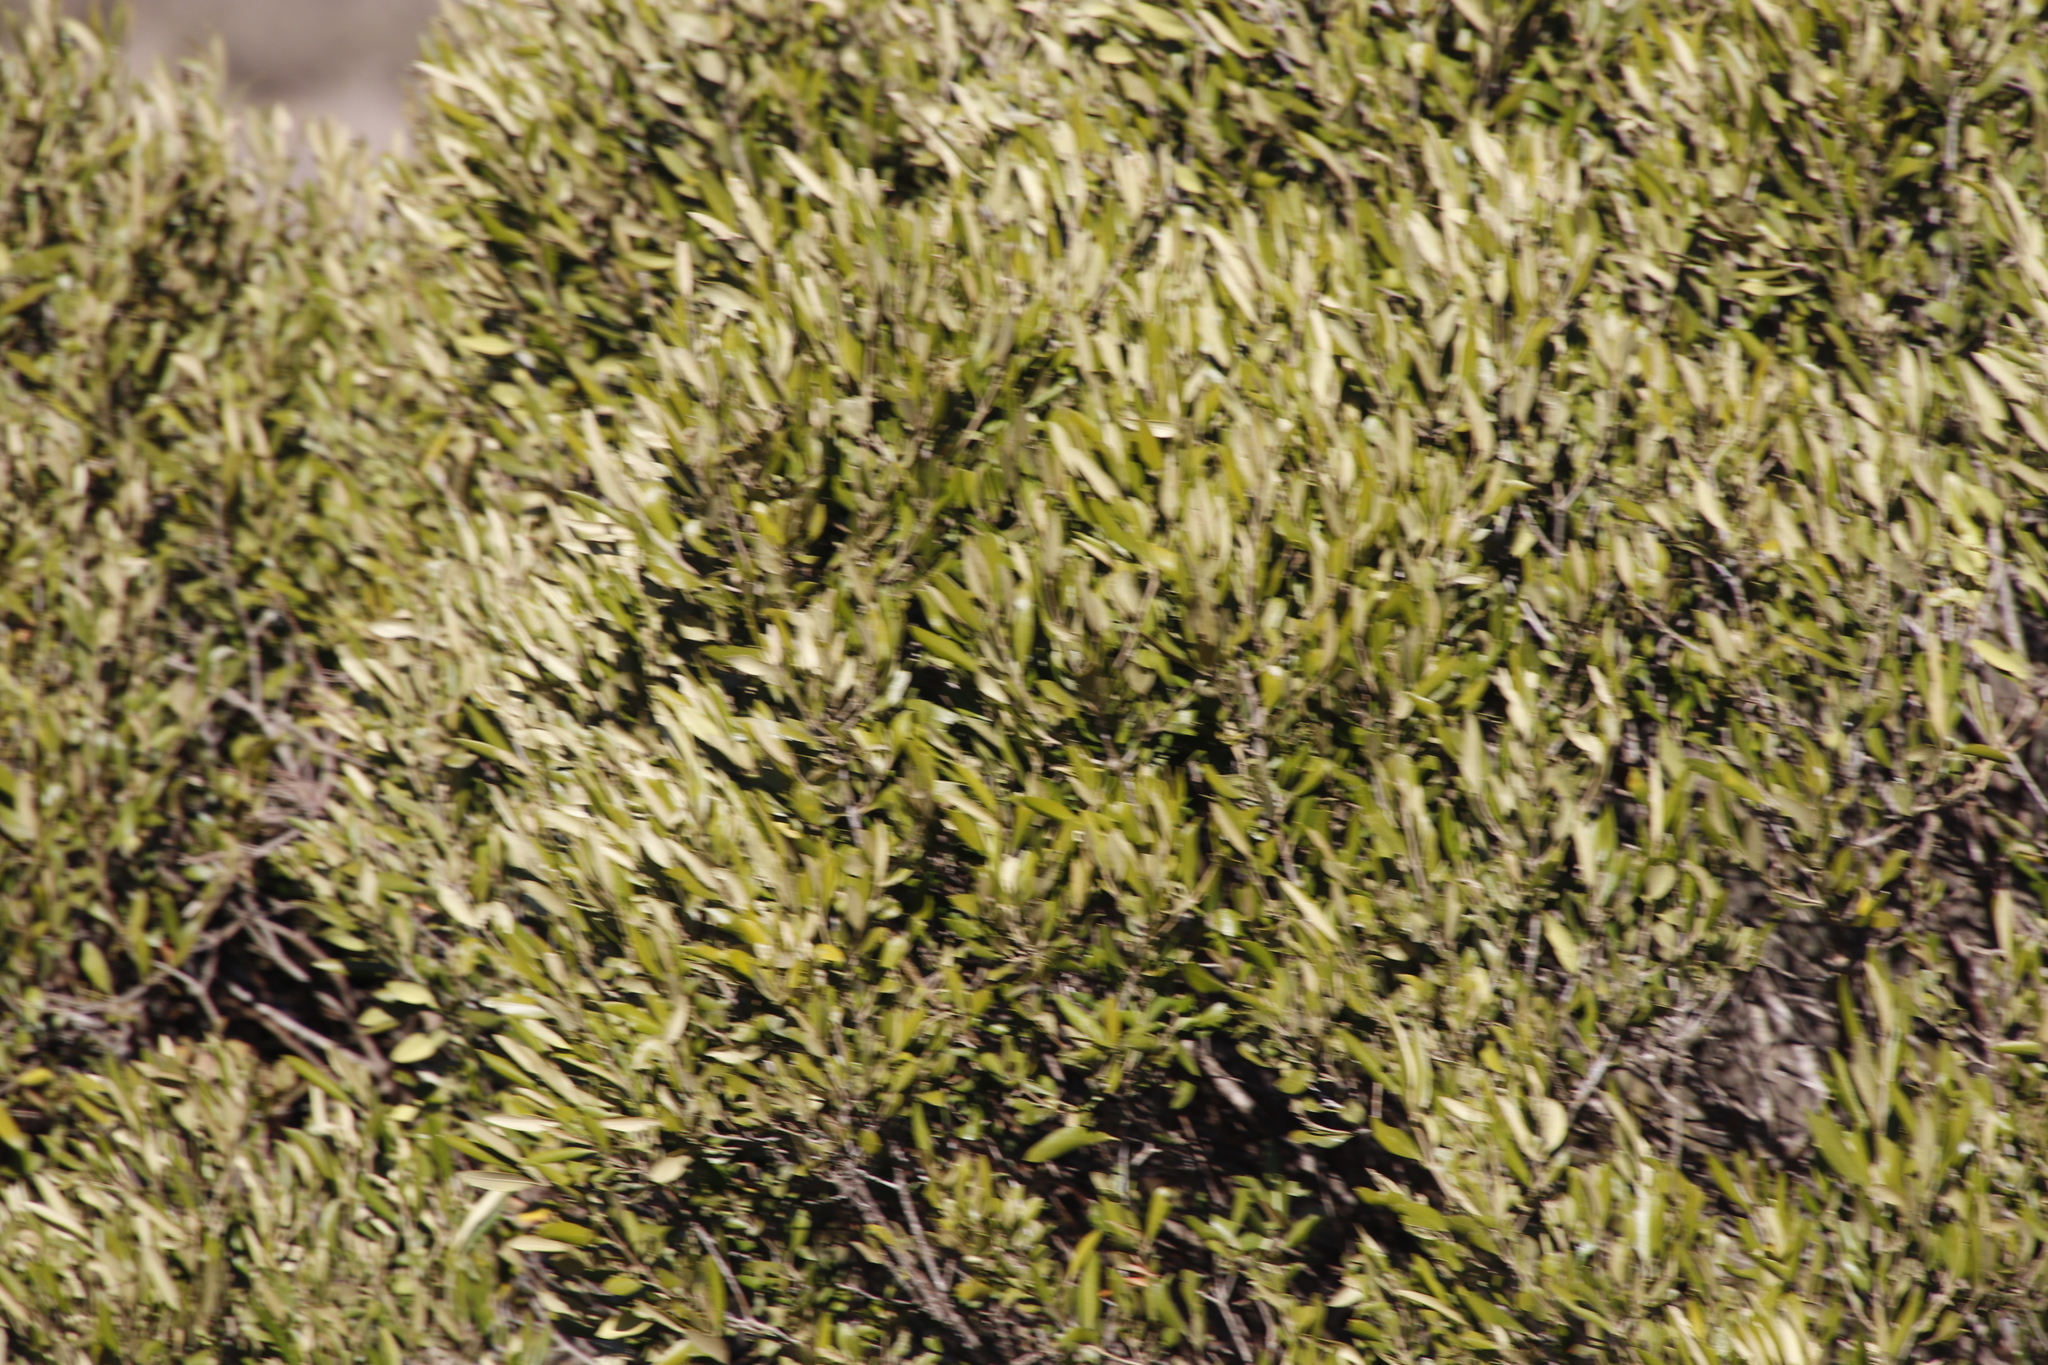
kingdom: Plantae
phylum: Tracheophyta
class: Magnoliopsida
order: Lamiales
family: Oleaceae
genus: Olea
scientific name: Olea europaea
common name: Olive
